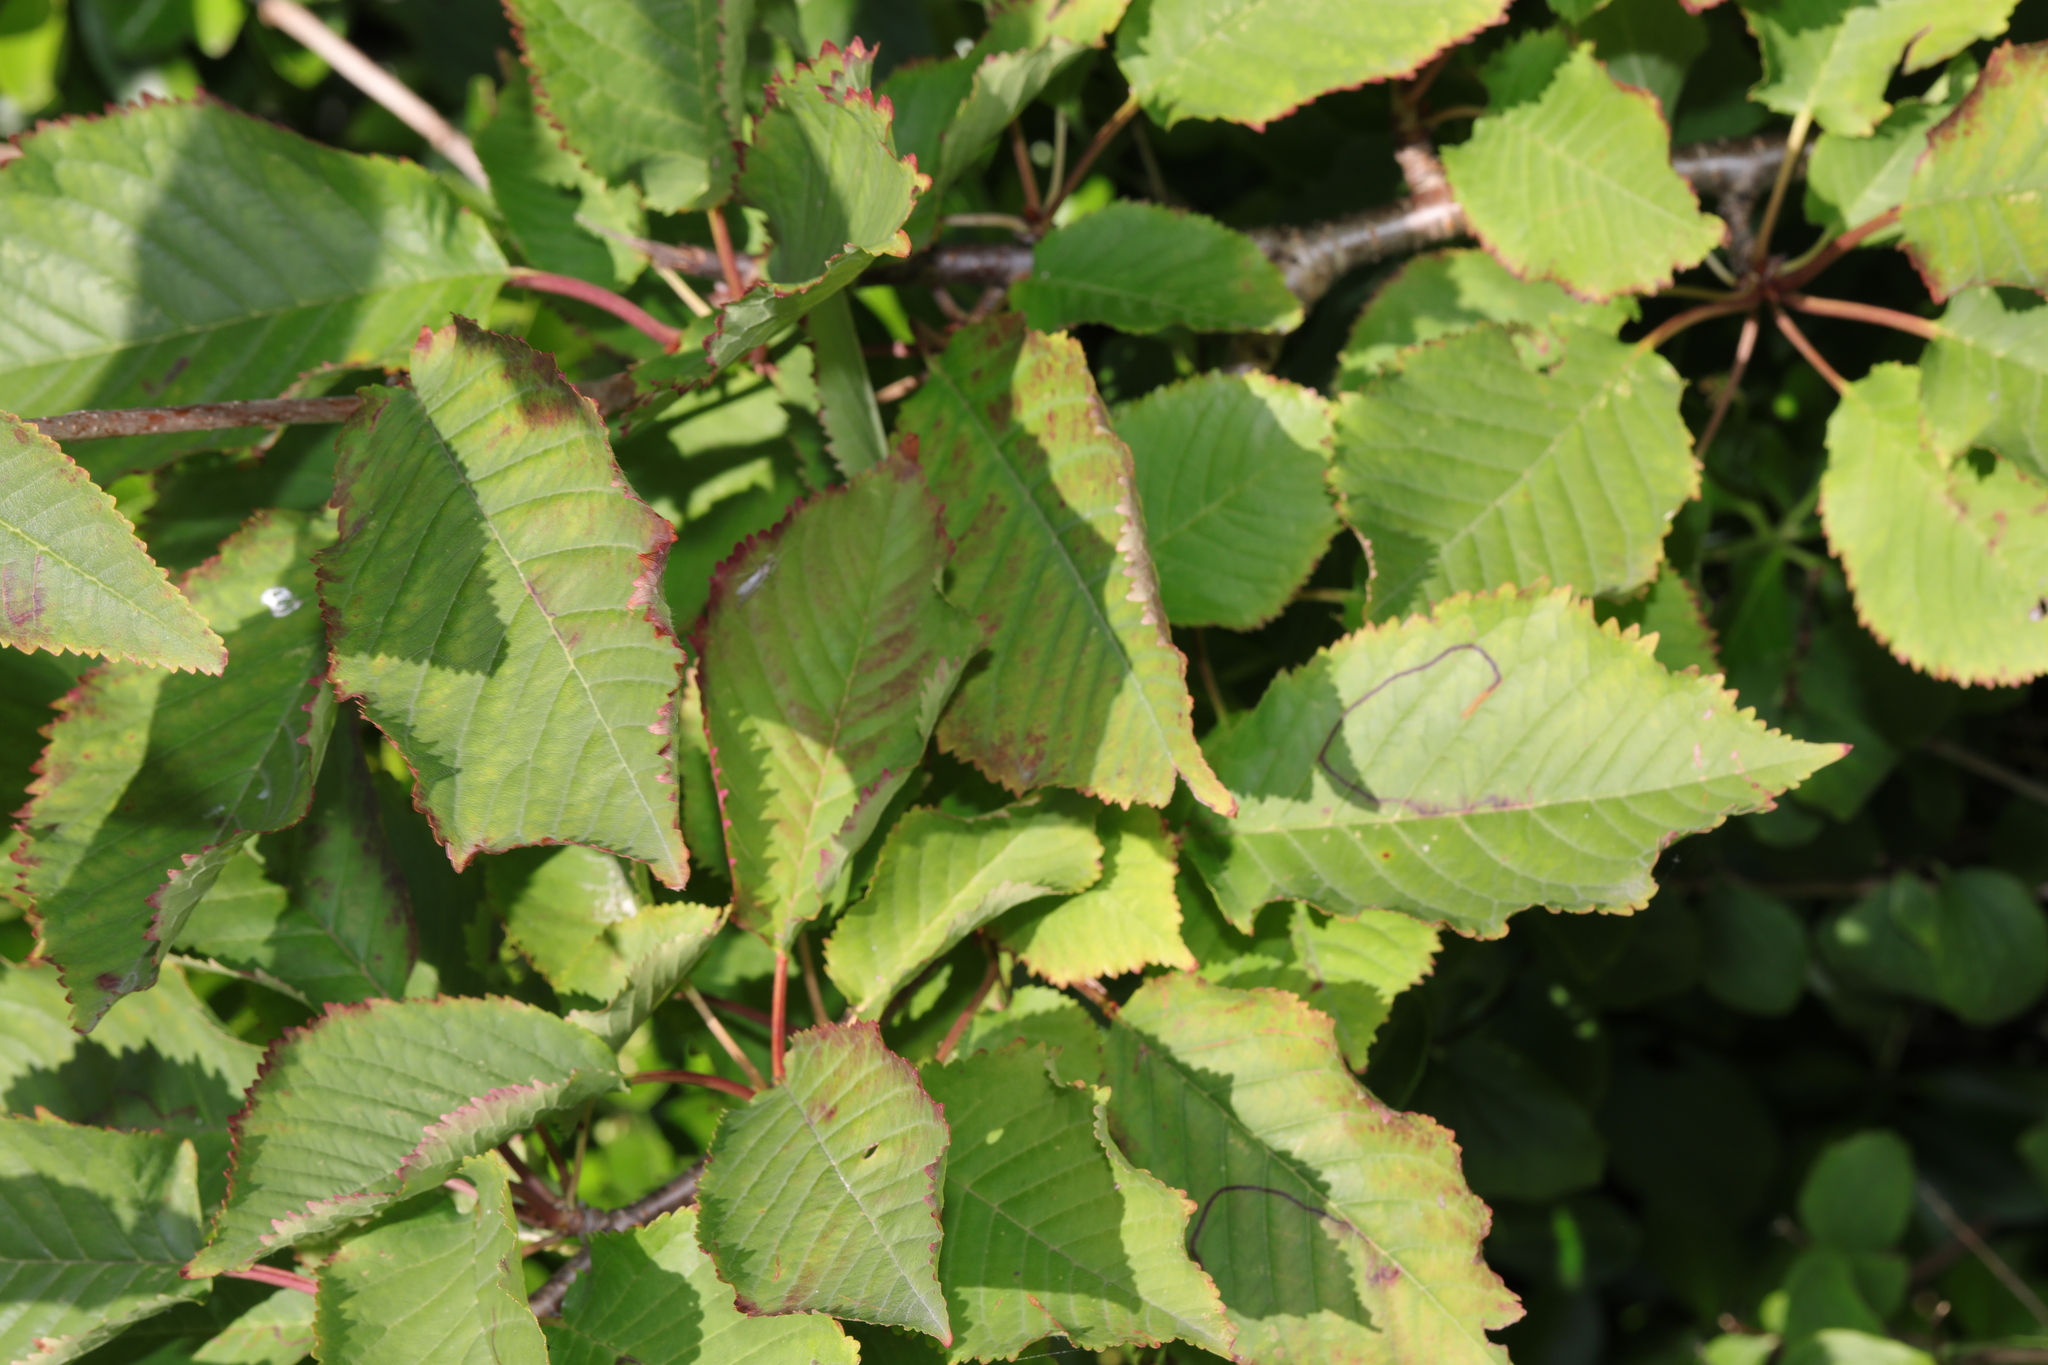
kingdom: Plantae
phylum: Tracheophyta
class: Magnoliopsida
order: Rosales
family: Rosaceae
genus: Prunus
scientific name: Prunus avium
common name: Sweet cherry
